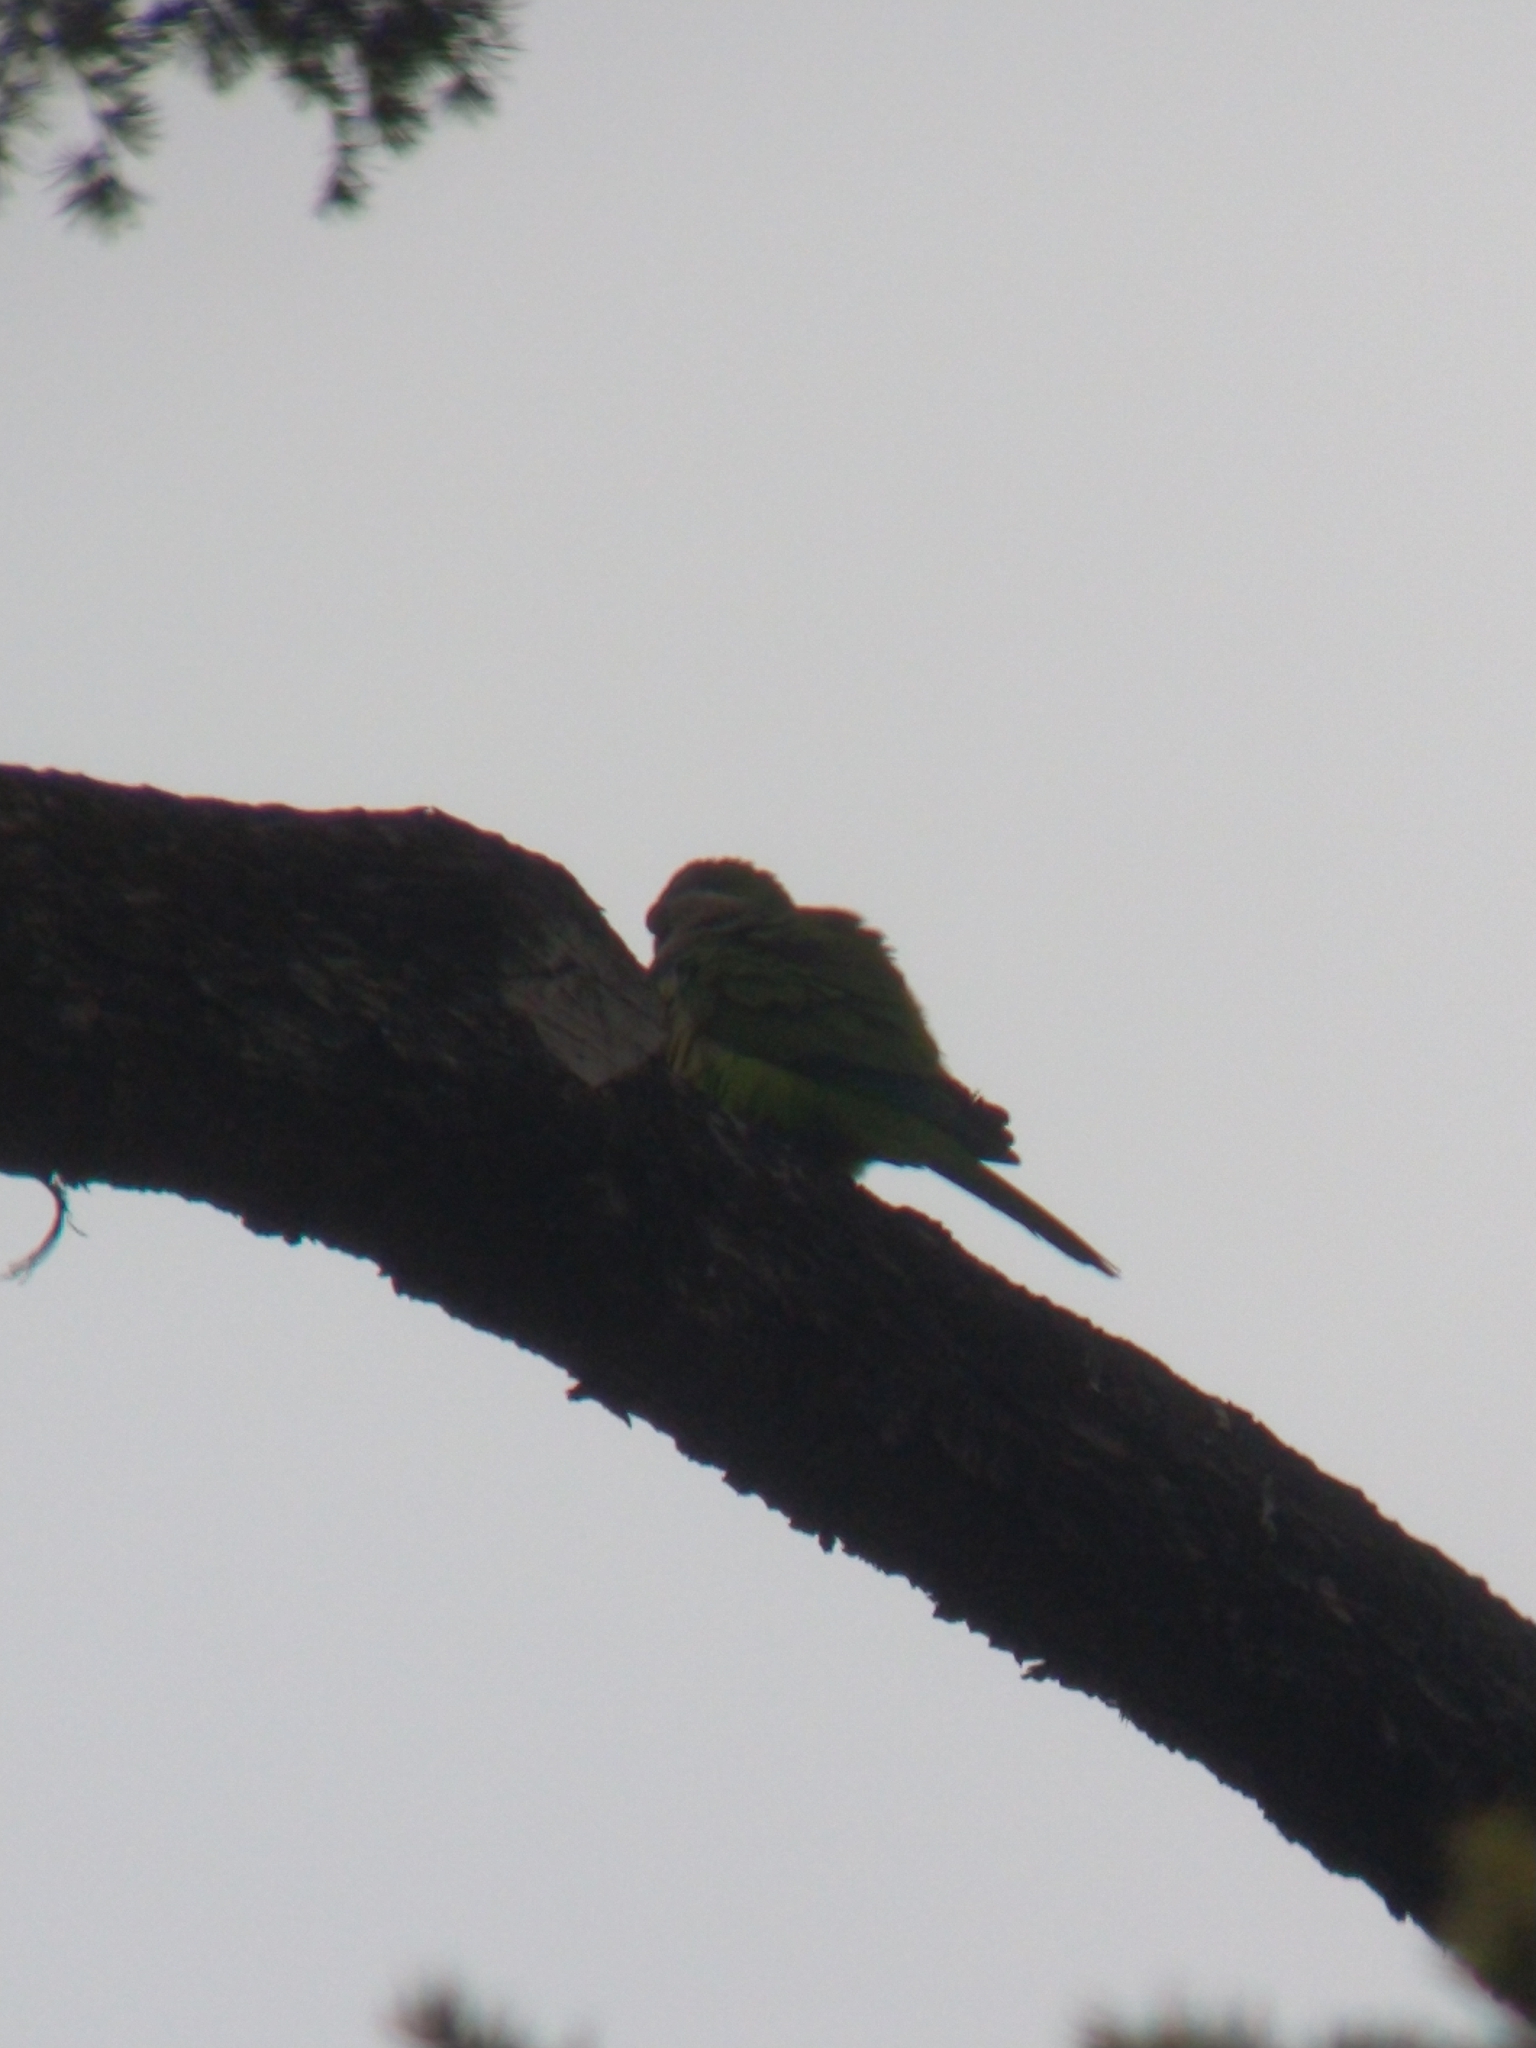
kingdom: Animalia
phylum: Chordata
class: Aves
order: Psittaciformes
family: Psittacidae
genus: Myiopsitta
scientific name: Myiopsitta monachus
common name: Monk parakeet
